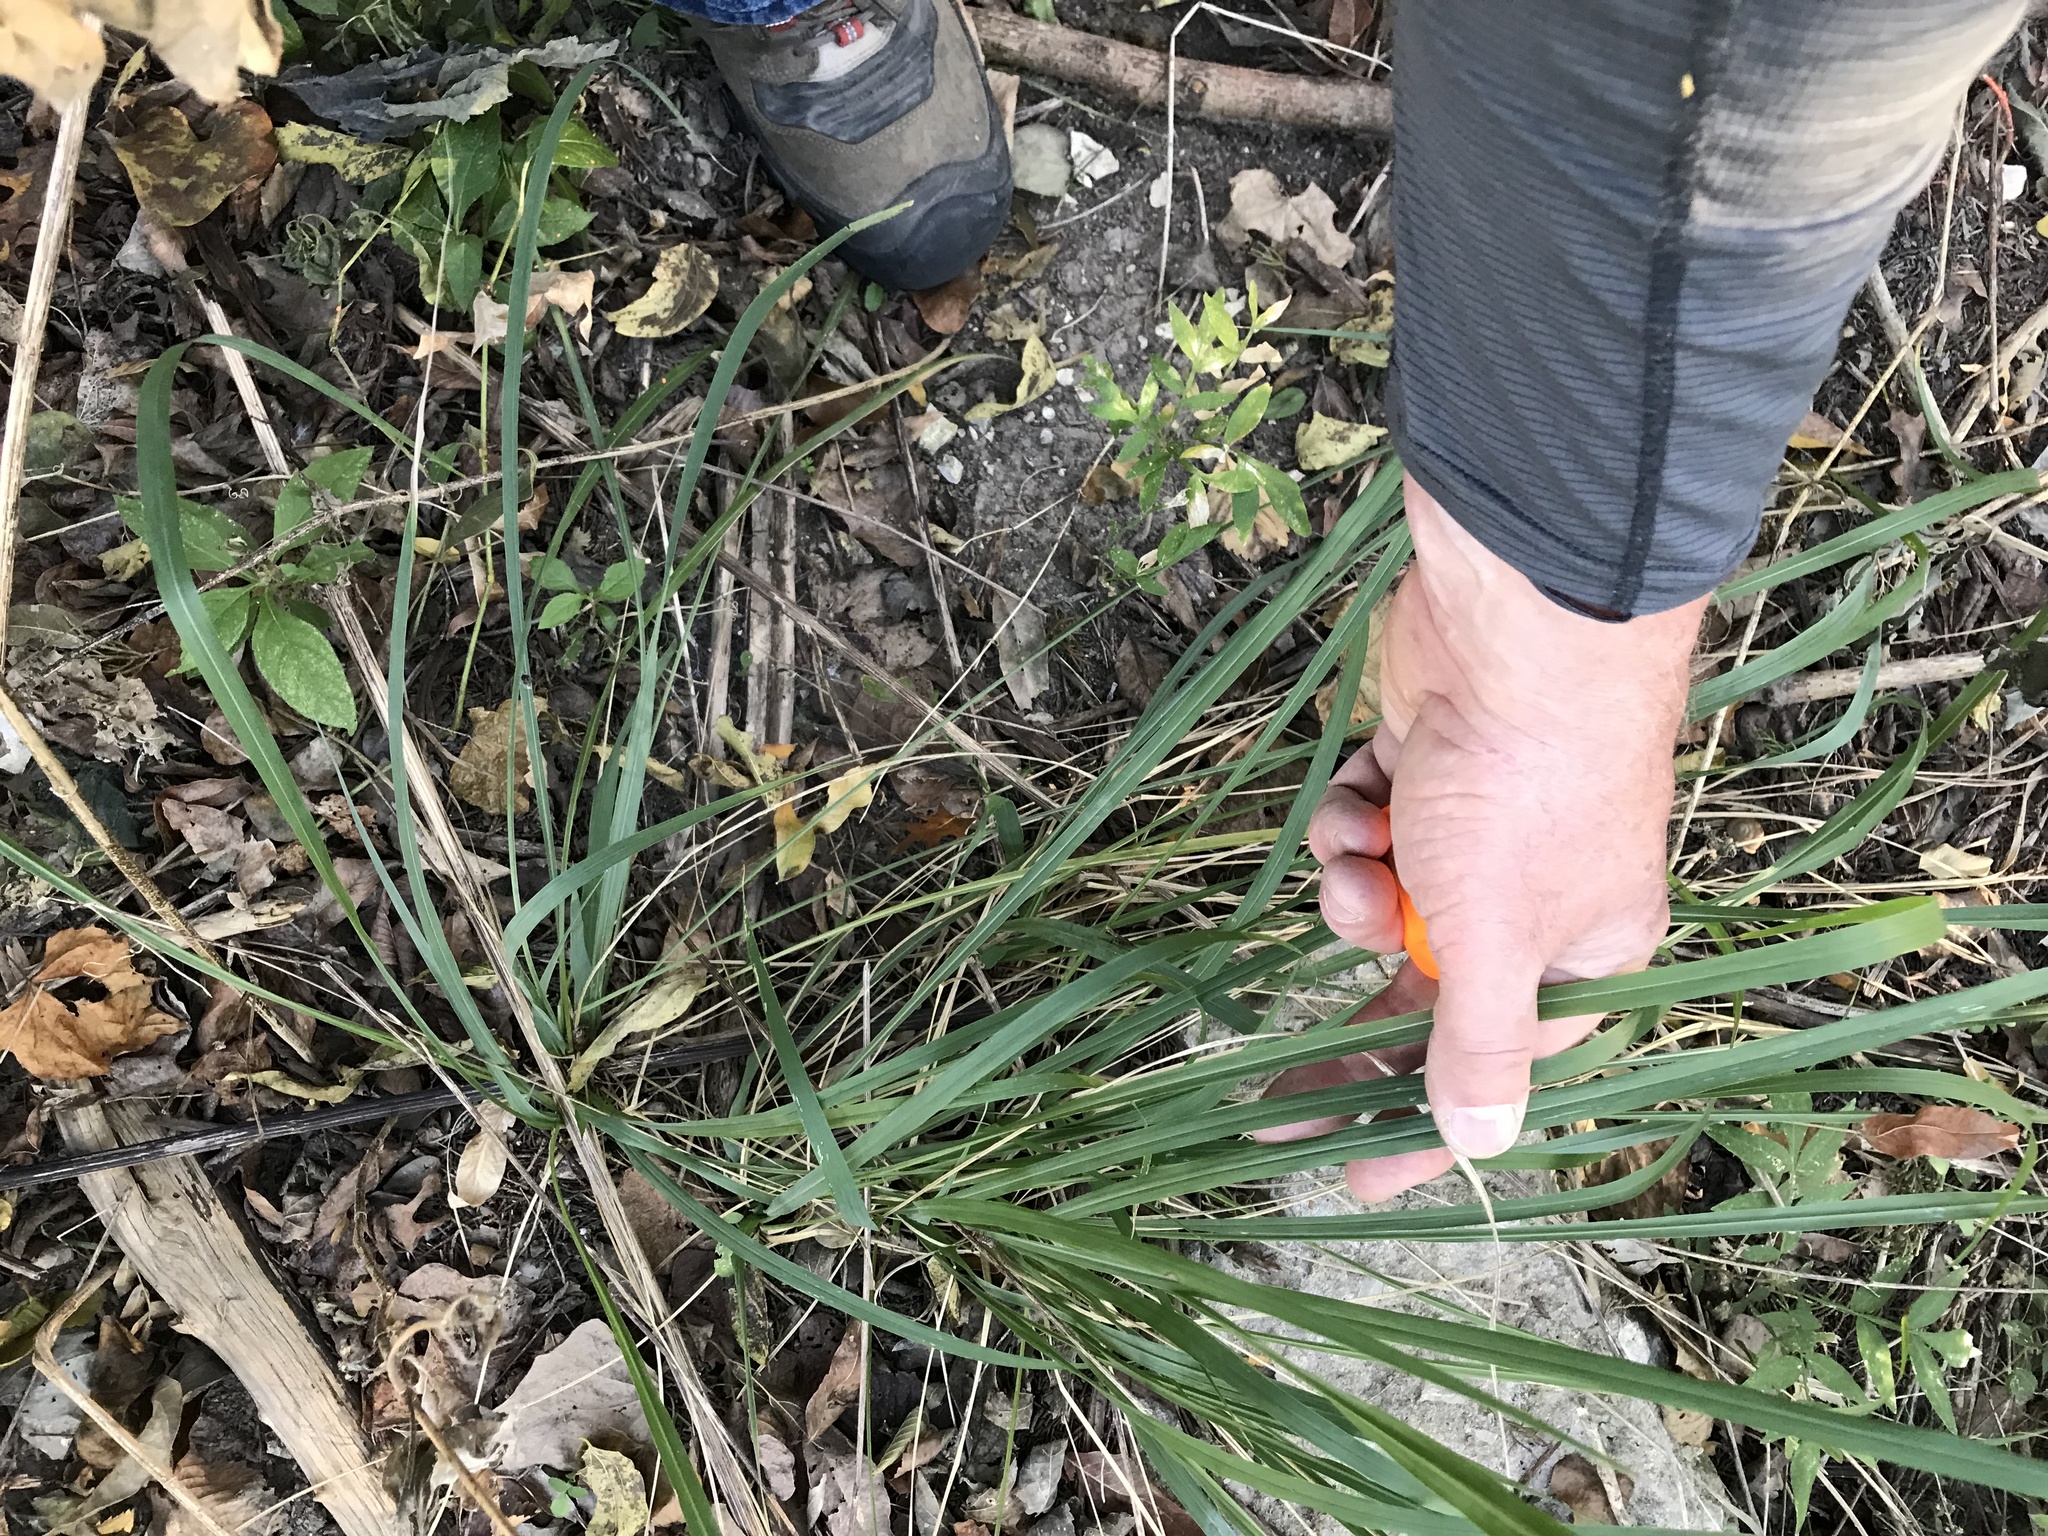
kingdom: Plantae
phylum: Tracheophyta
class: Liliopsida
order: Poales
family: Poaceae
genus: Tripsacum
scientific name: Tripsacum dactyloides
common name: Buffalo-grass
